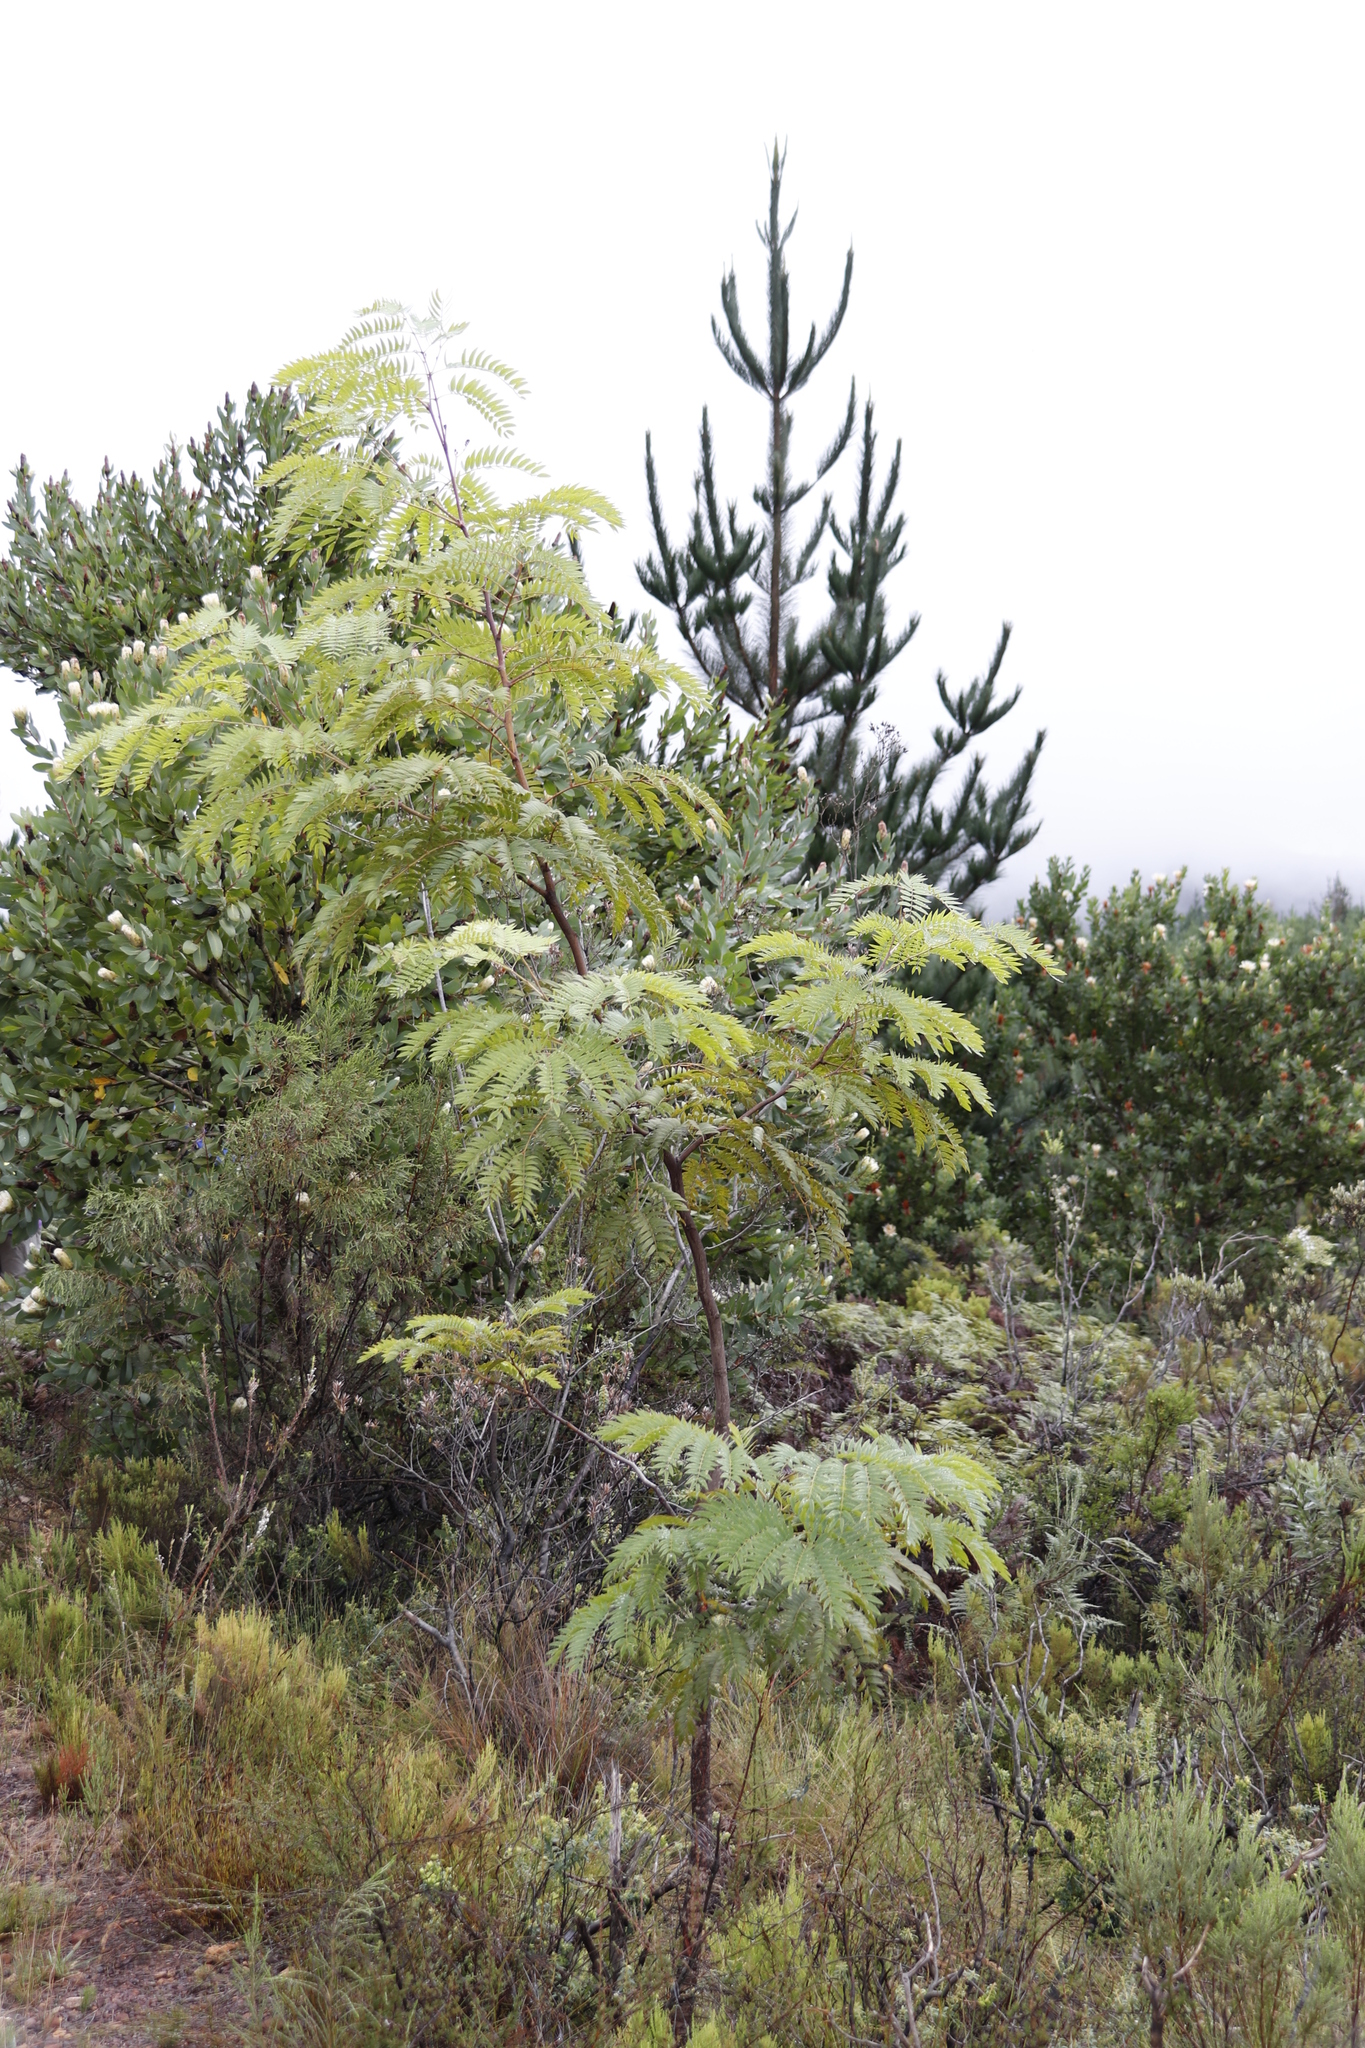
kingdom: Plantae
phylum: Tracheophyta
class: Magnoliopsida
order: Fabales
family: Fabaceae
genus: Acacia
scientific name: Acacia elata
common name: Cedar wattle
